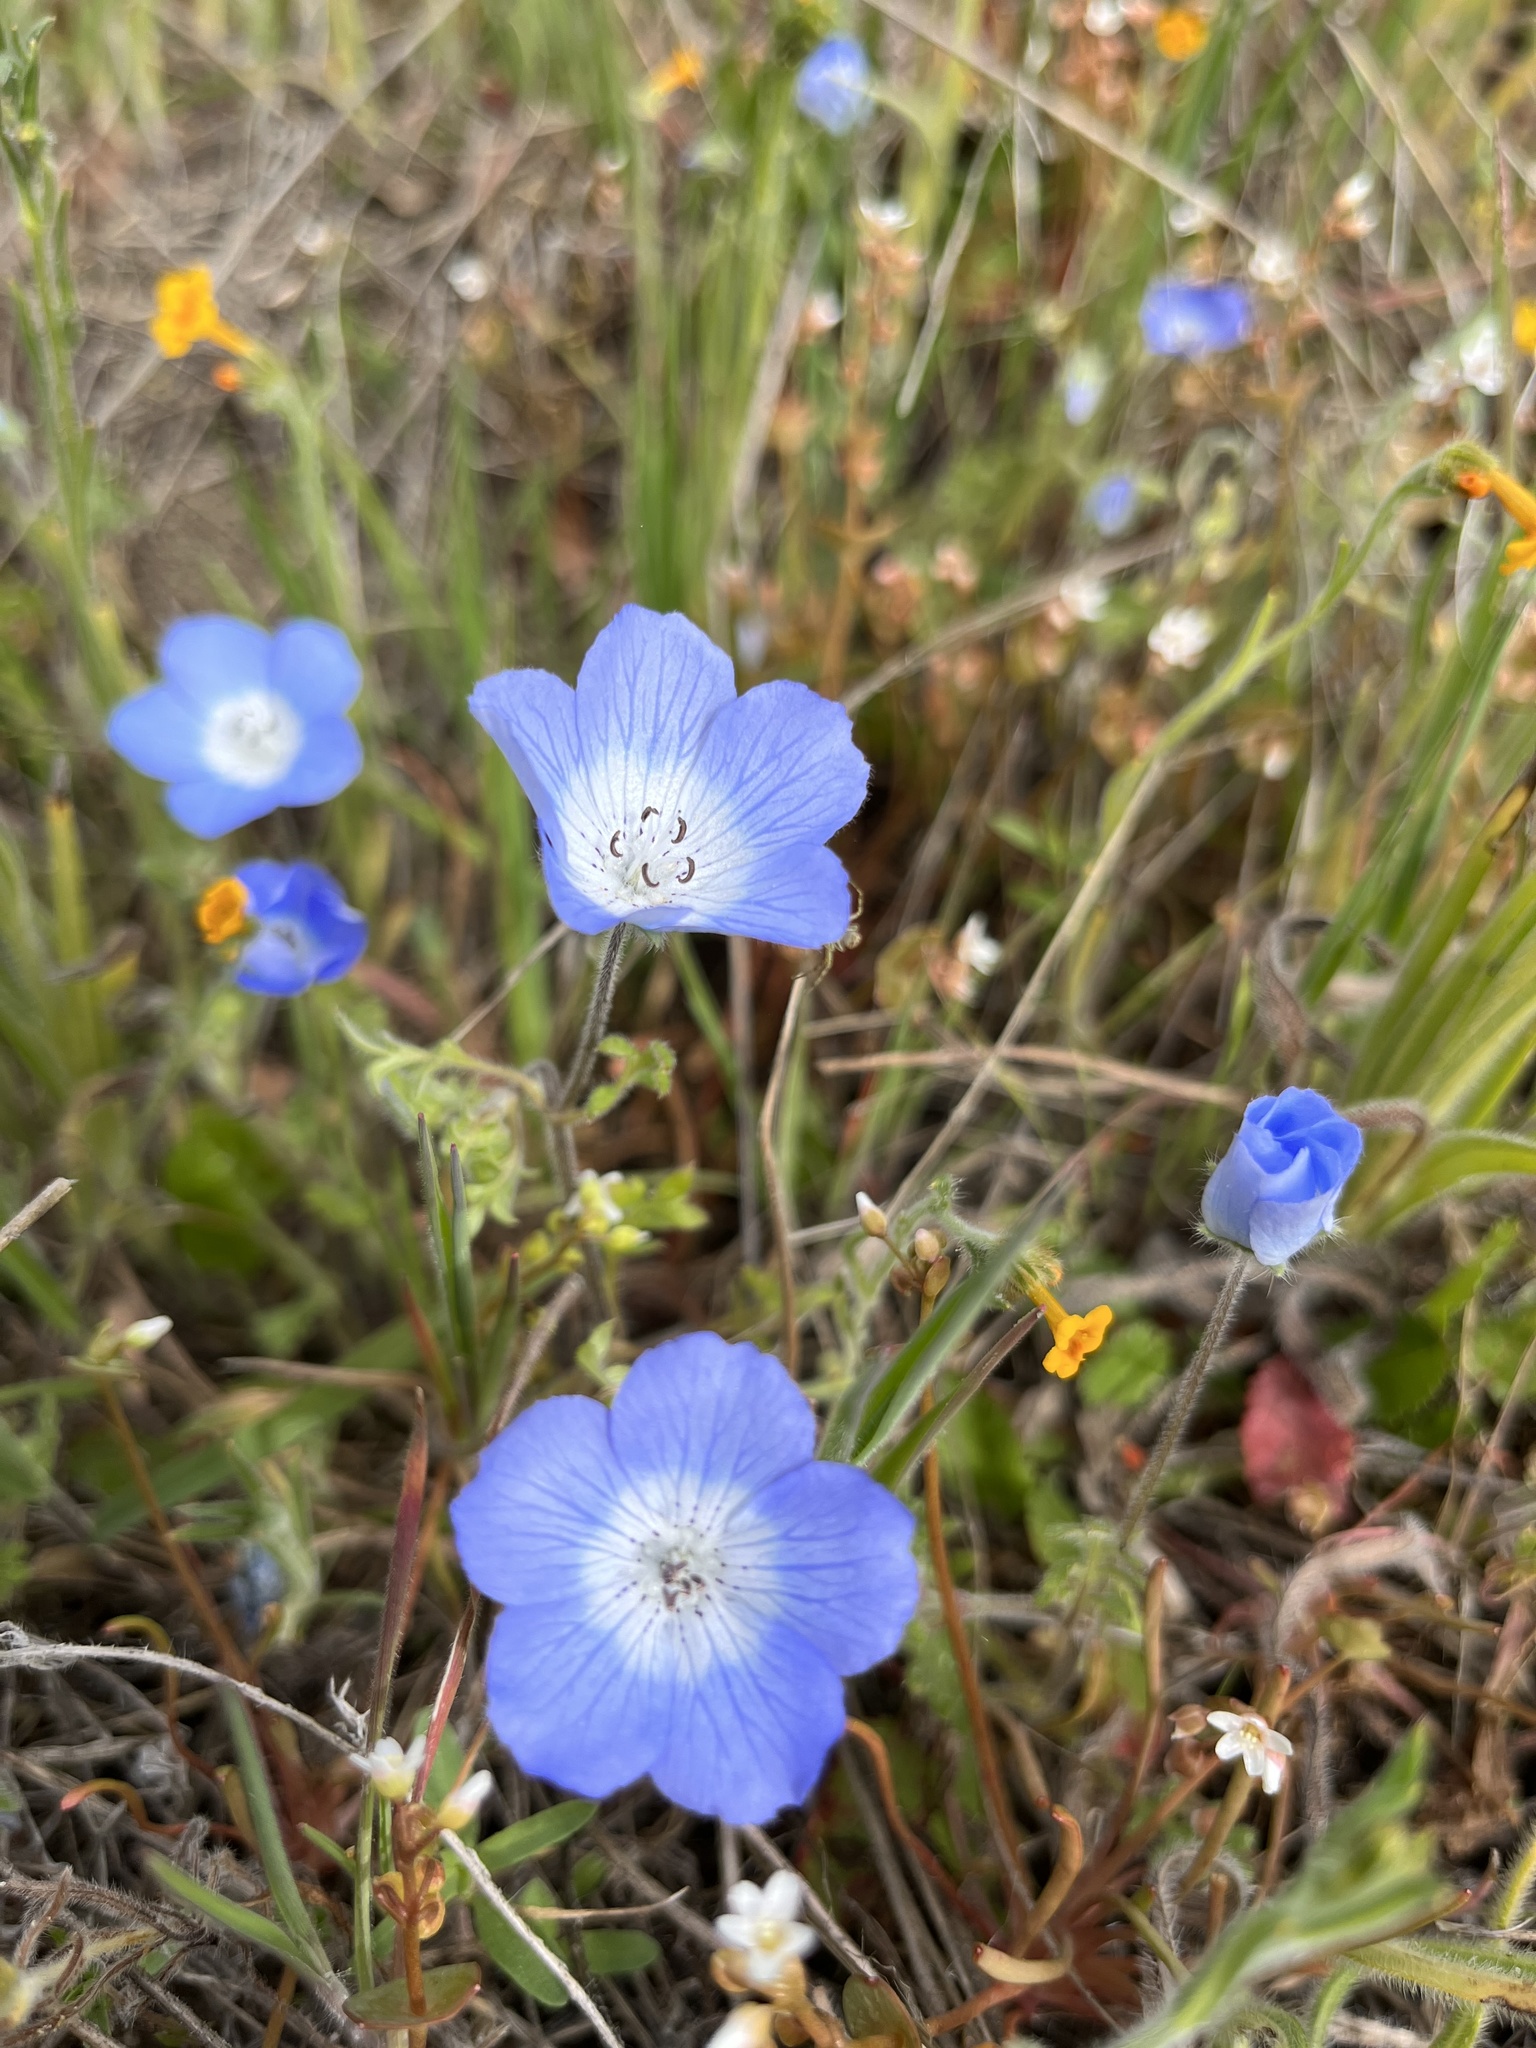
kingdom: Plantae
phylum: Tracheophyta
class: Magnoliopsida
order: Boraginales
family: Hydrophyllaceae
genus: Nemophila
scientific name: Nemophila menziesii
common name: Baby's-blue-eyes
